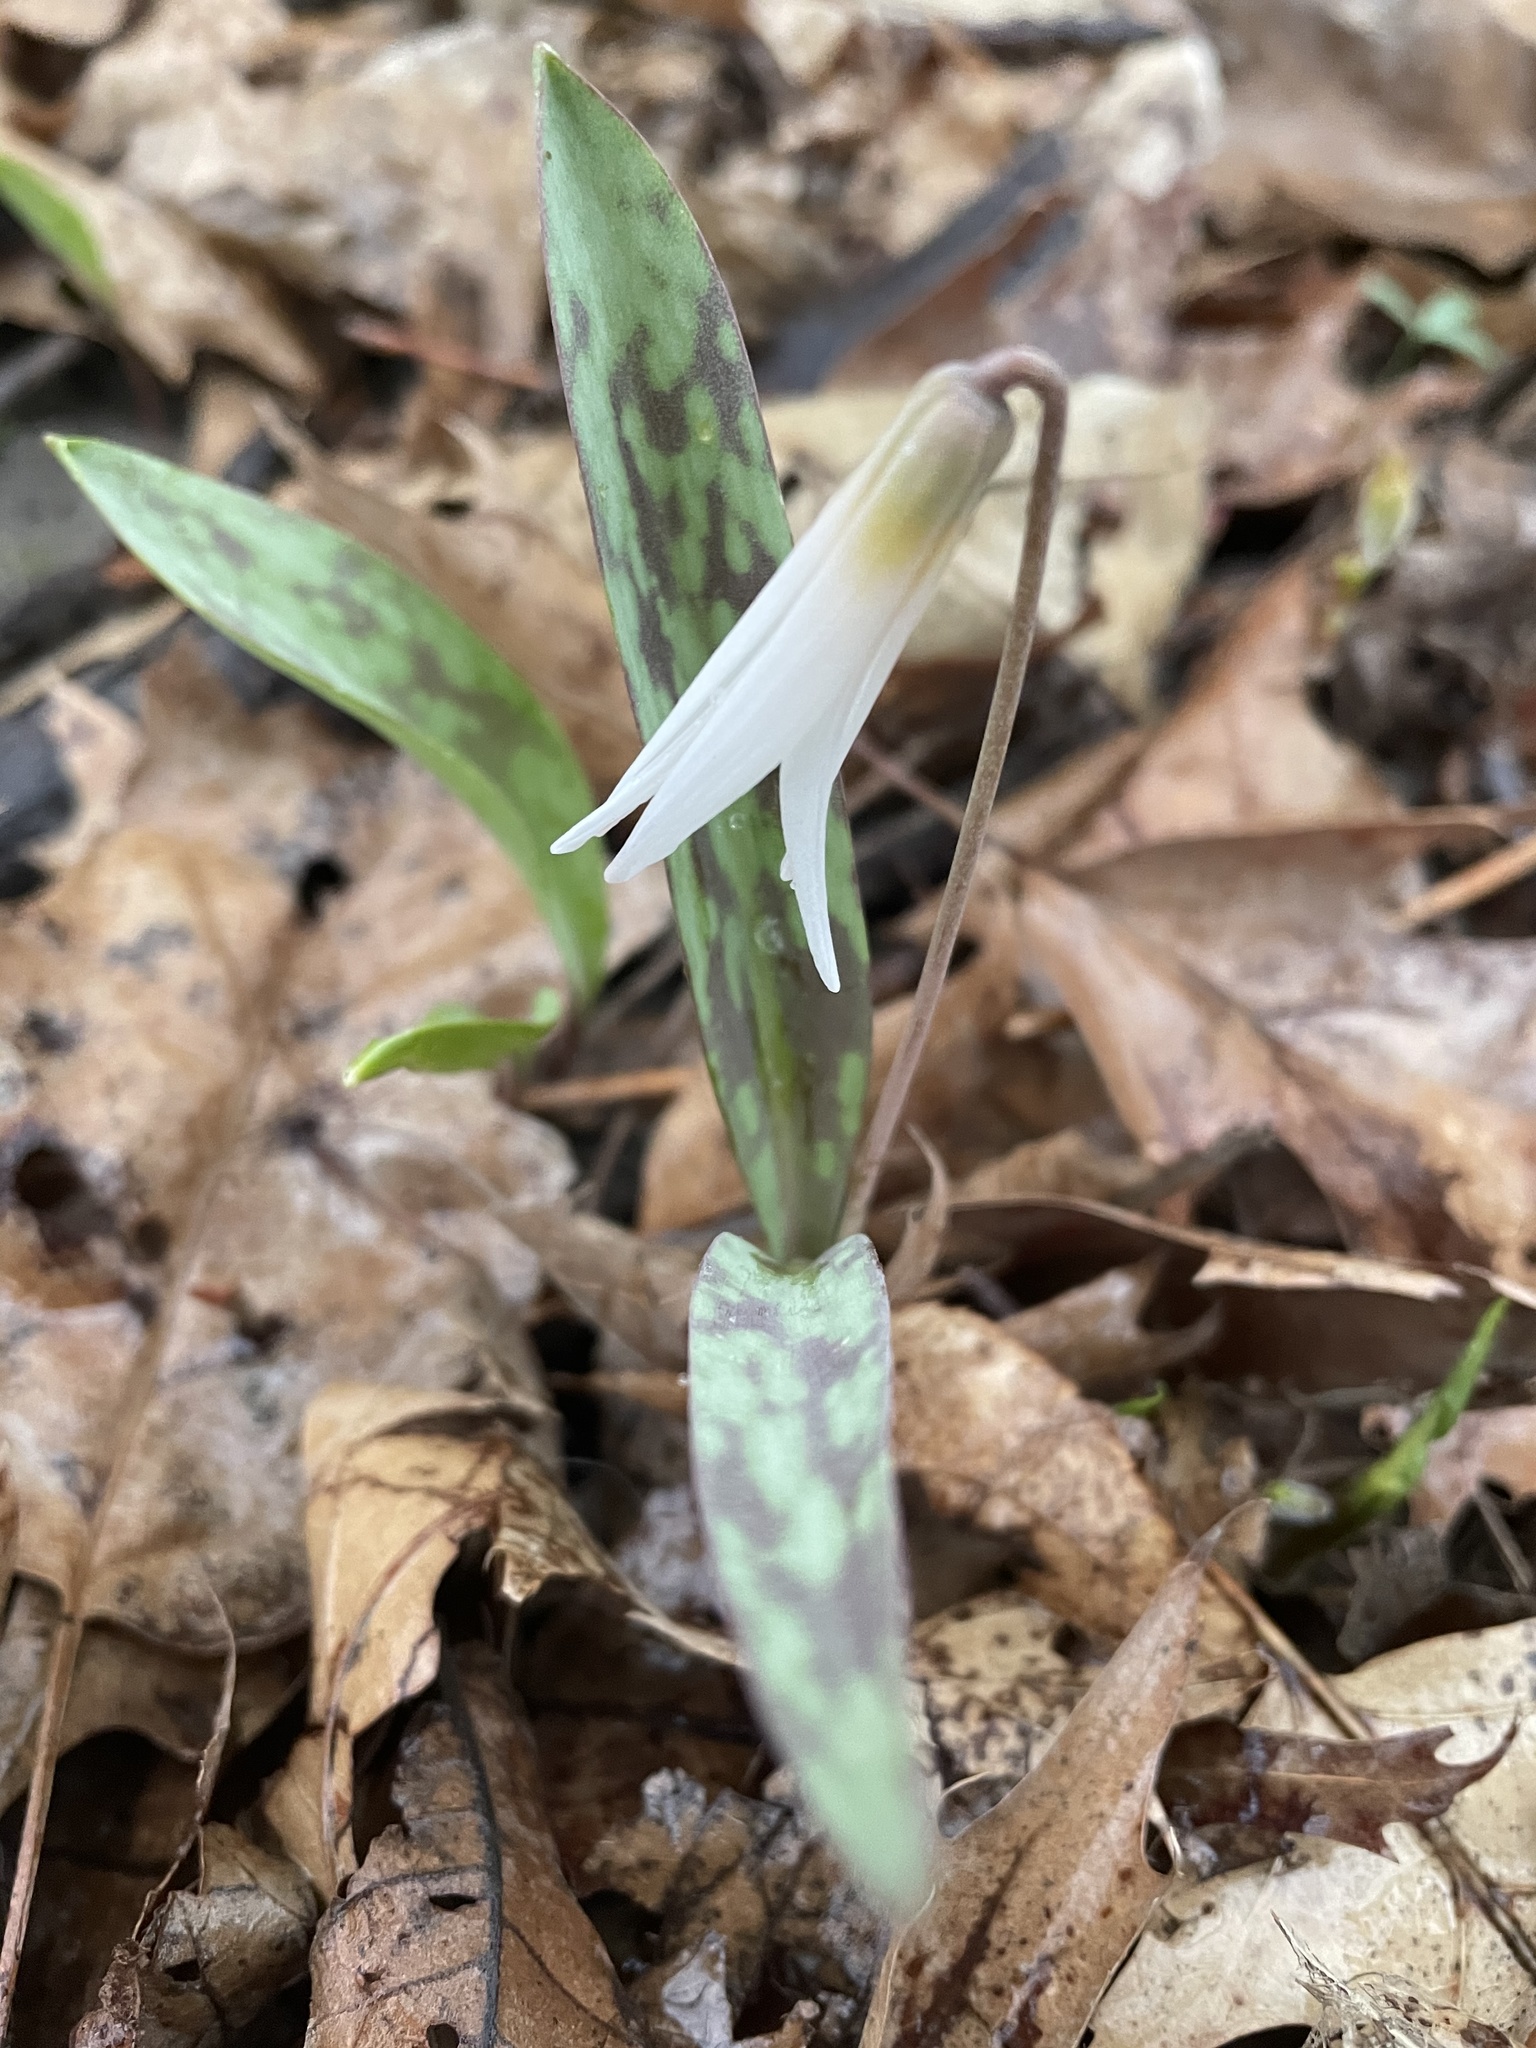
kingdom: Plantae
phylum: Tracheophyta
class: Liliopsida
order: Liliales
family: Liliaceae
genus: Erythronium
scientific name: Erythronium albidum
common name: White trout-lily
